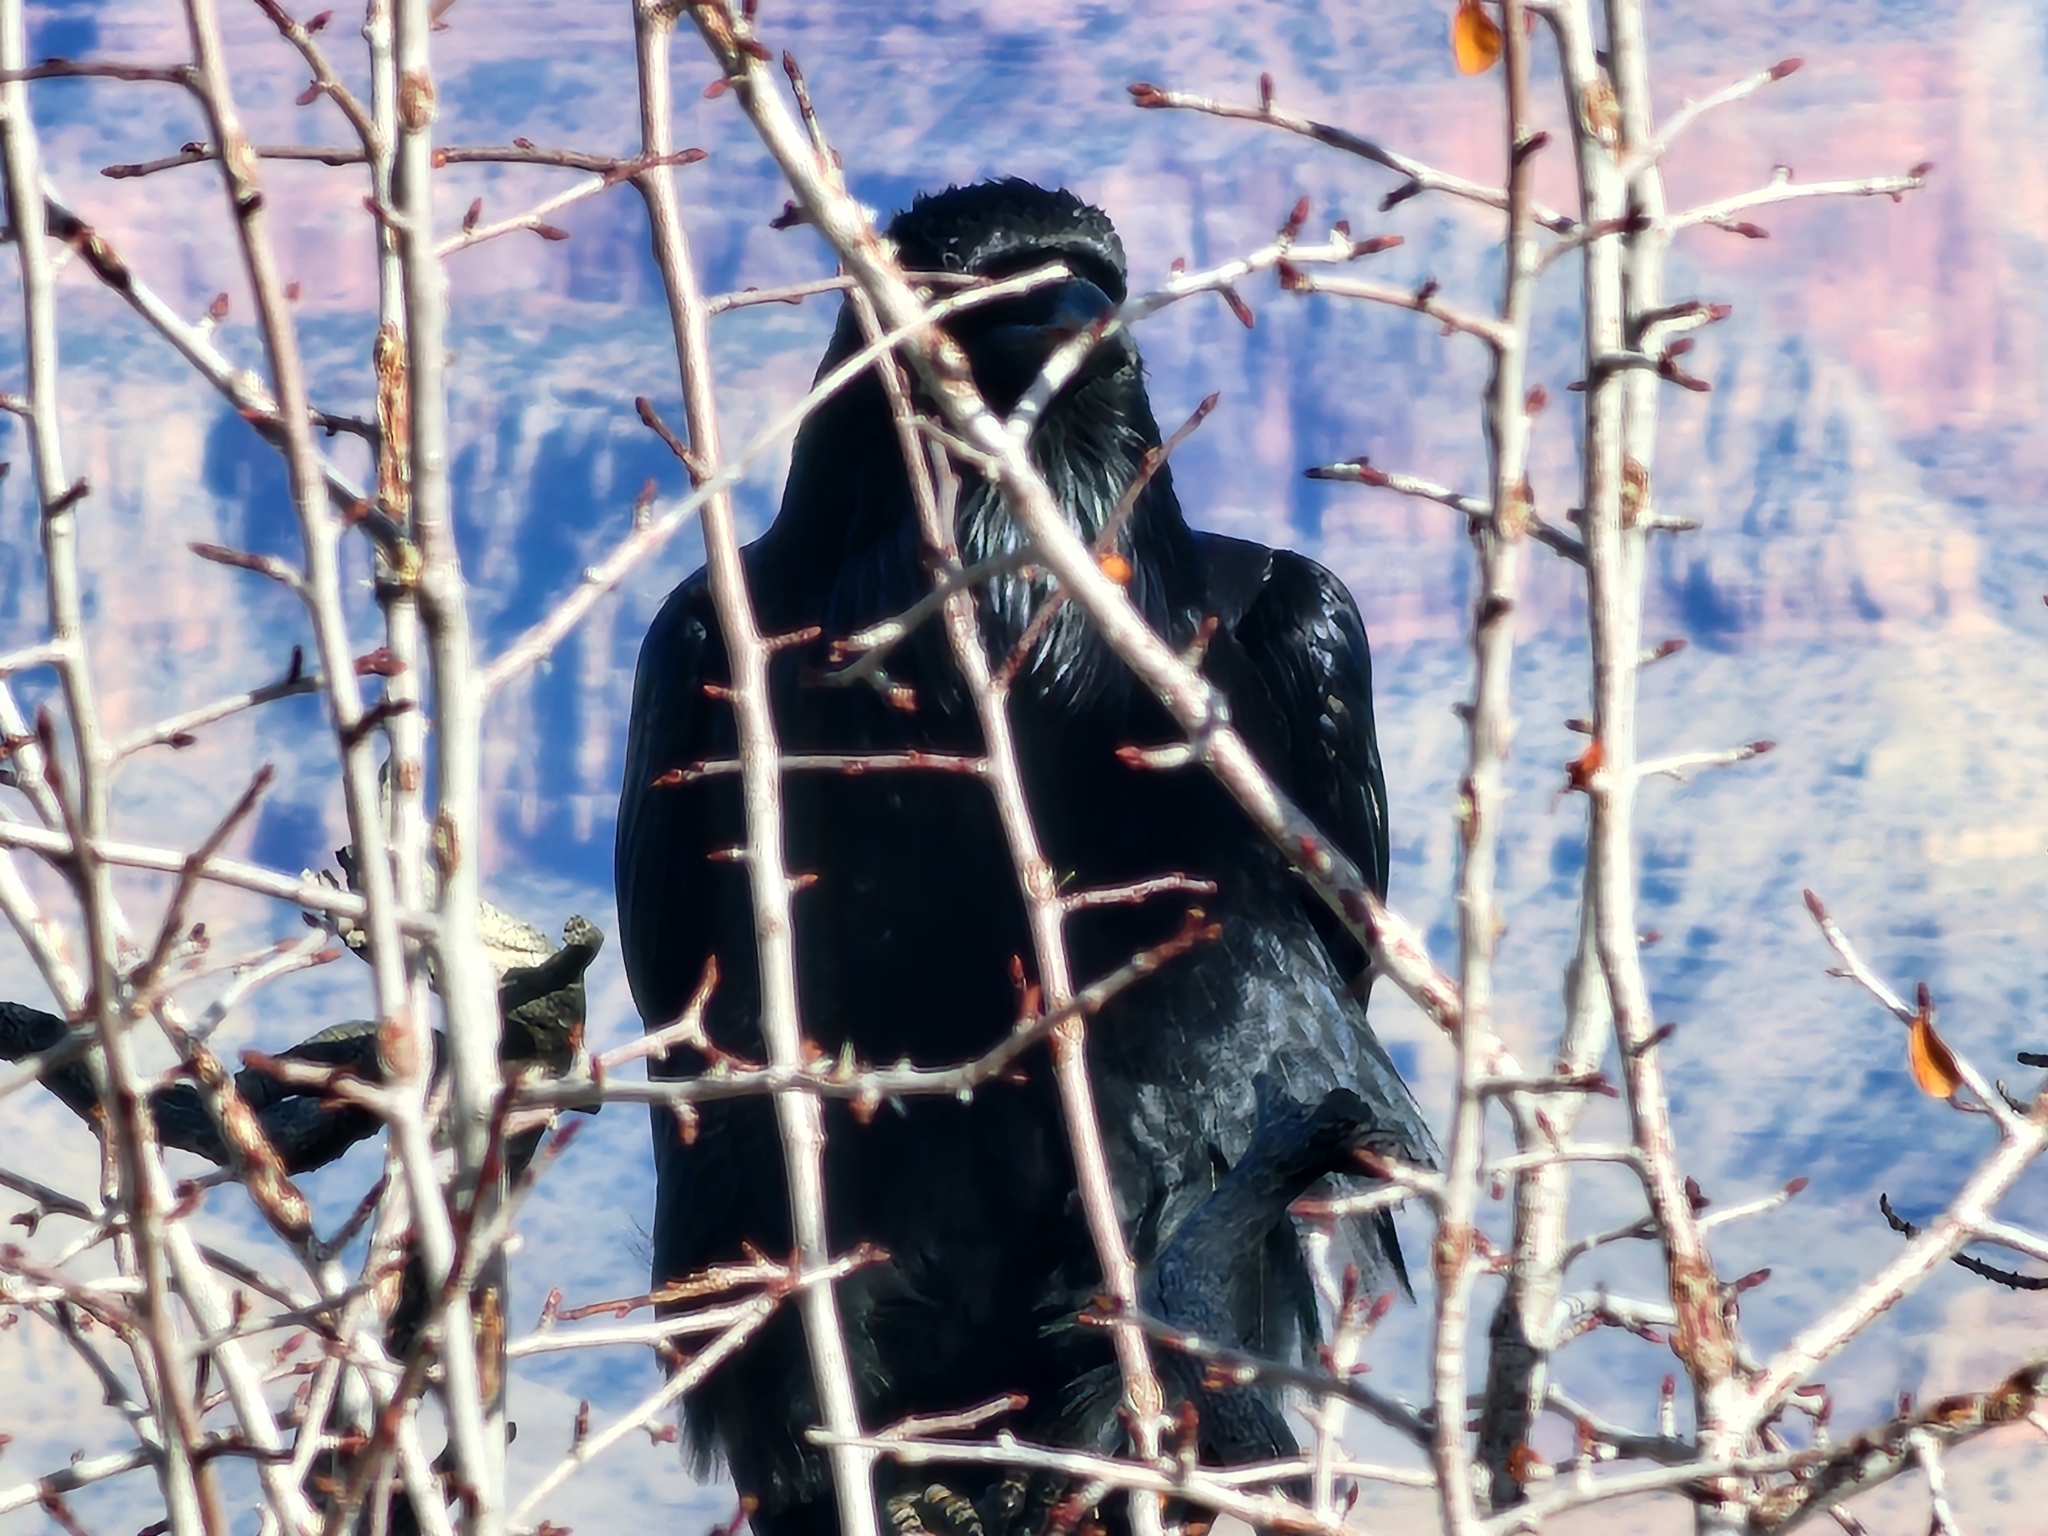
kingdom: Animalia
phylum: Chordata
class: Aves
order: Passeriformes
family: Corvidae
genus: Corvus
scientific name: Corvus corax
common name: Common raven
